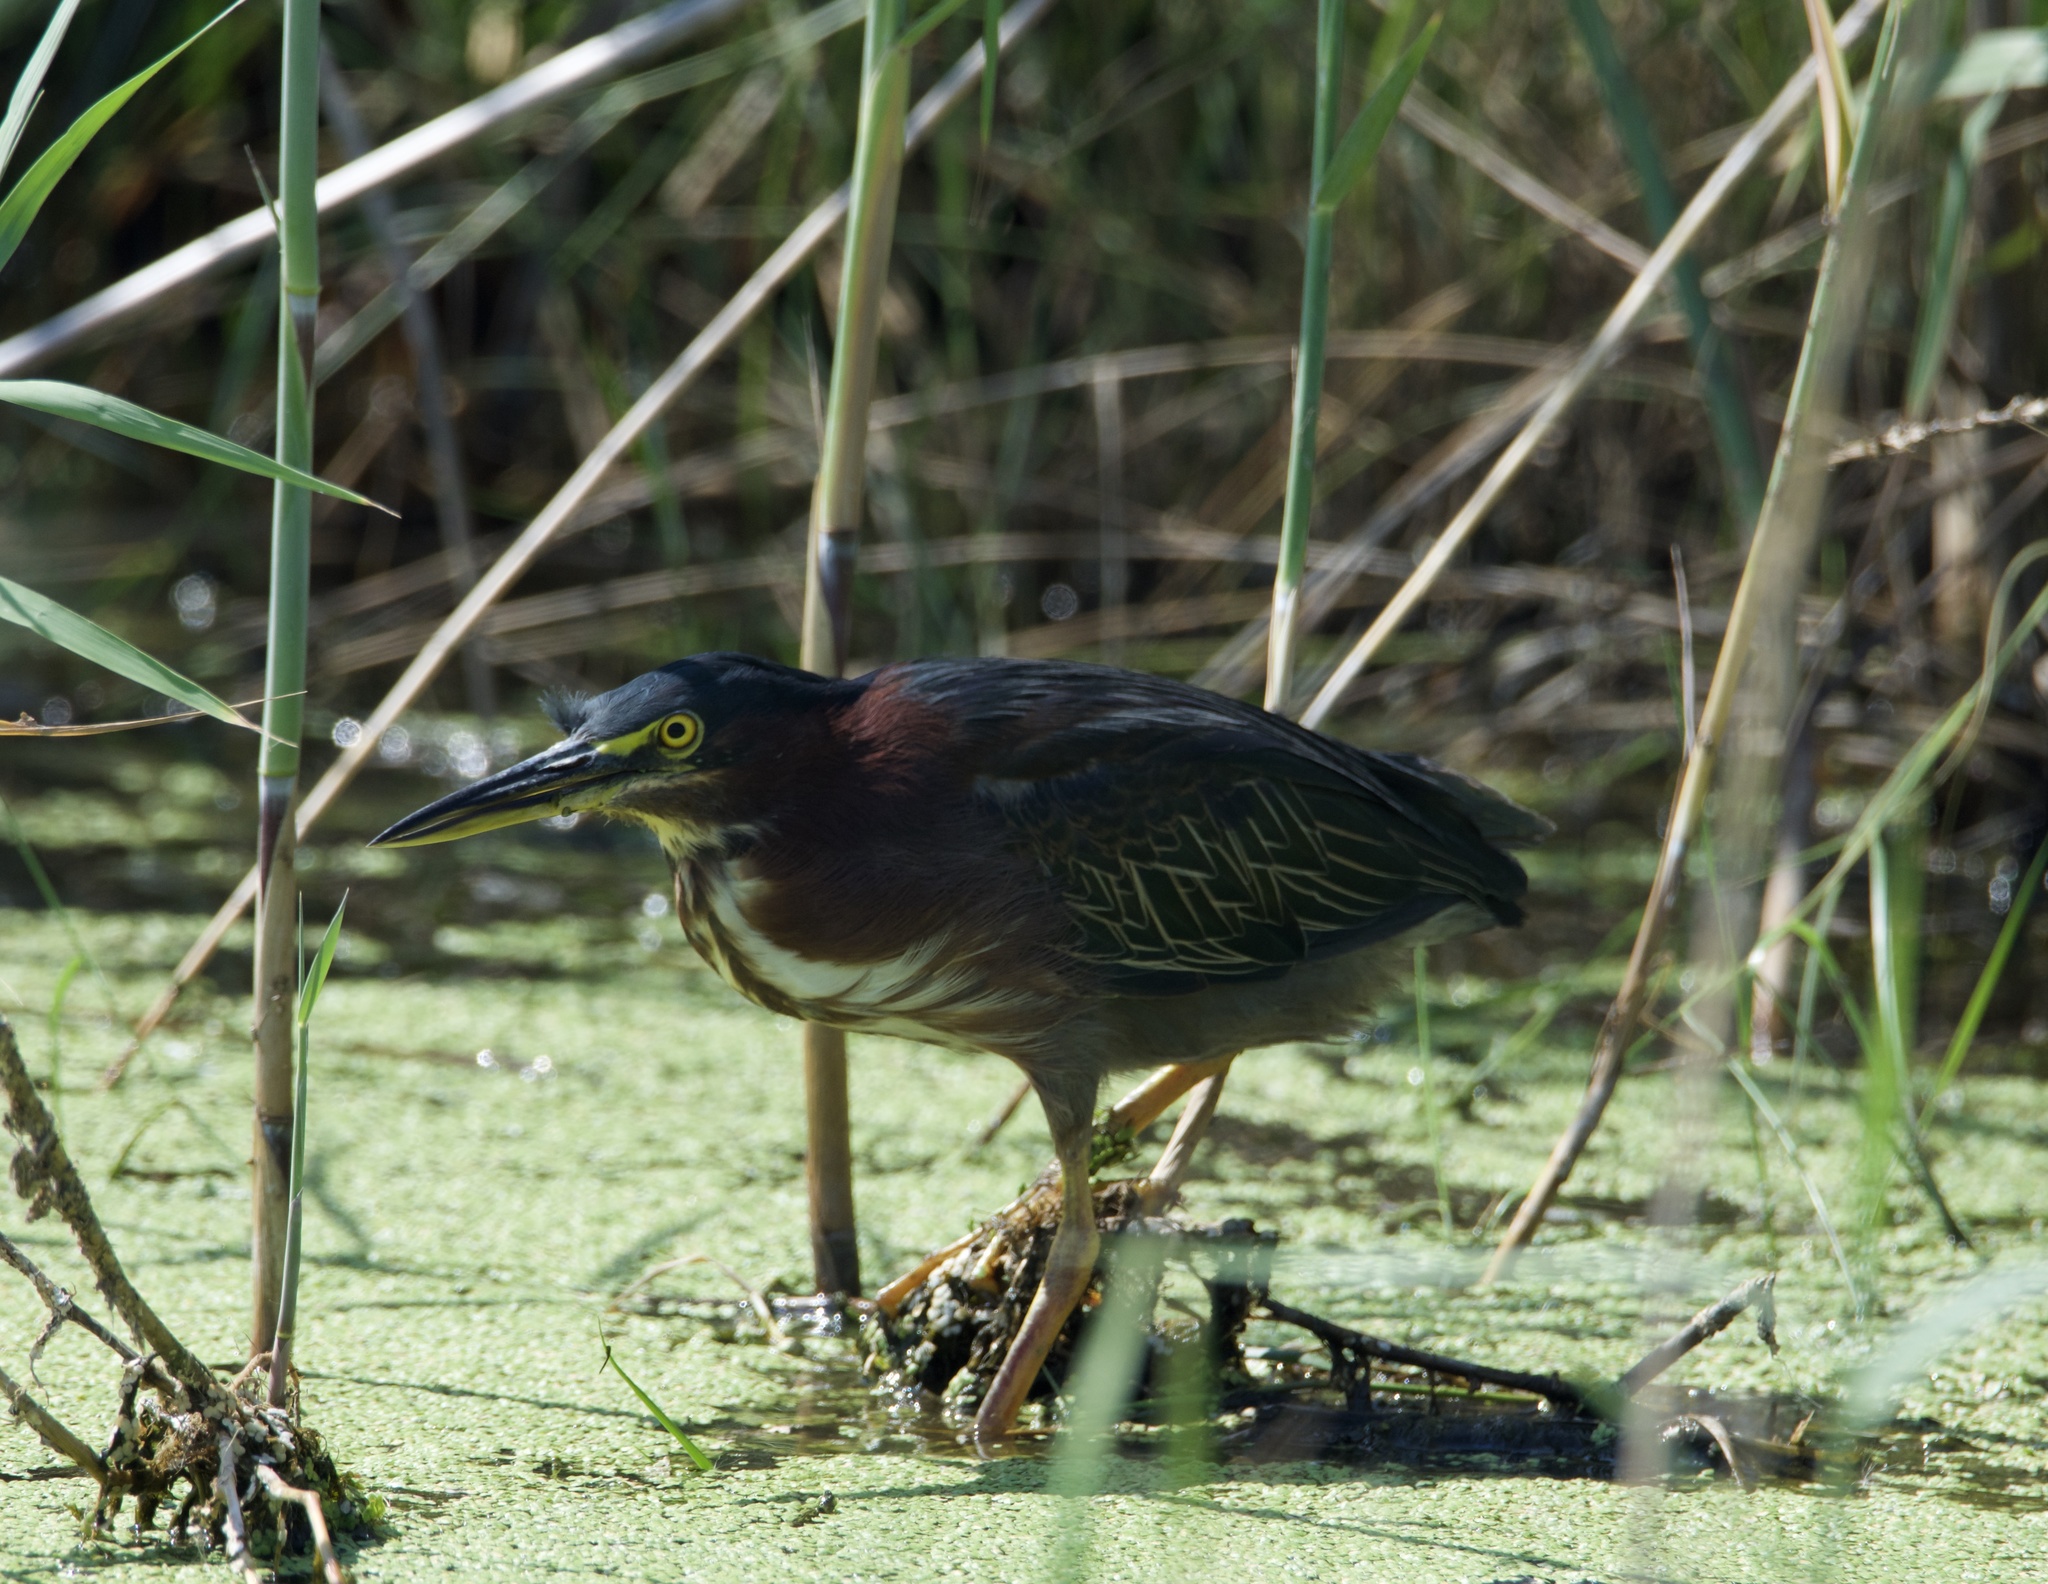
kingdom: Animalia
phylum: Chordata
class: Aves
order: Pelecaniformes
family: Ardeidae
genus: Butorides
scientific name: Butorides virescens
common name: Green heron
